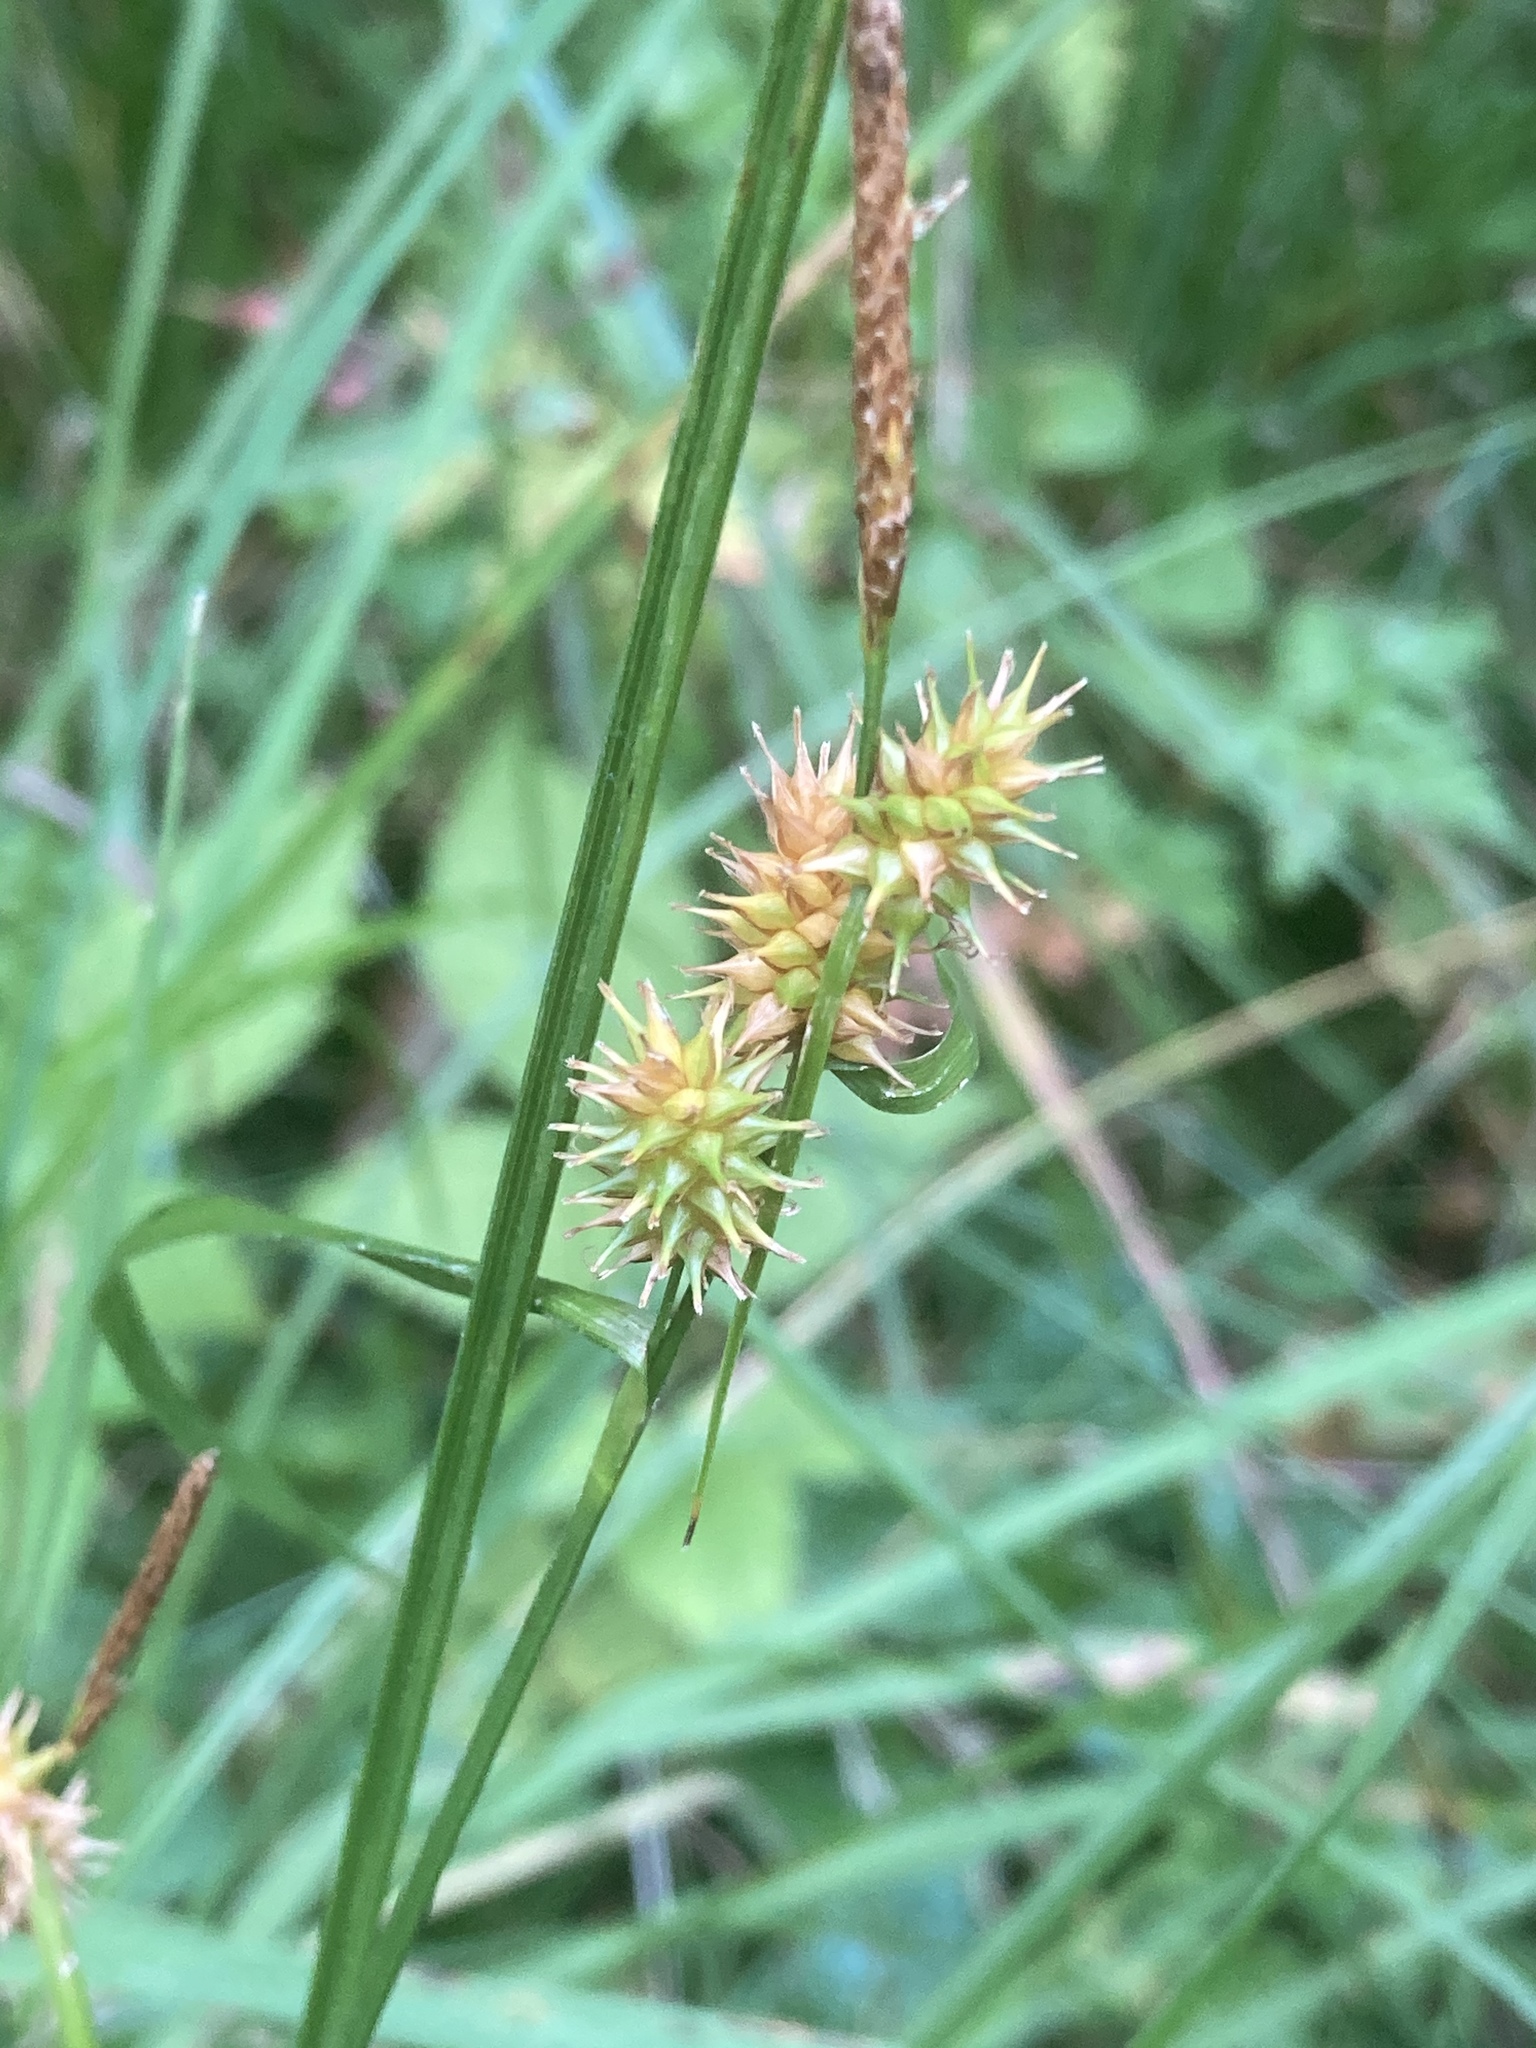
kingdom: Plantae
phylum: Tracheophyta
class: Liliopsida
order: Poales
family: Cyperaceae
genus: Carex
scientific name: Carex flava
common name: Large yellow-sedge
